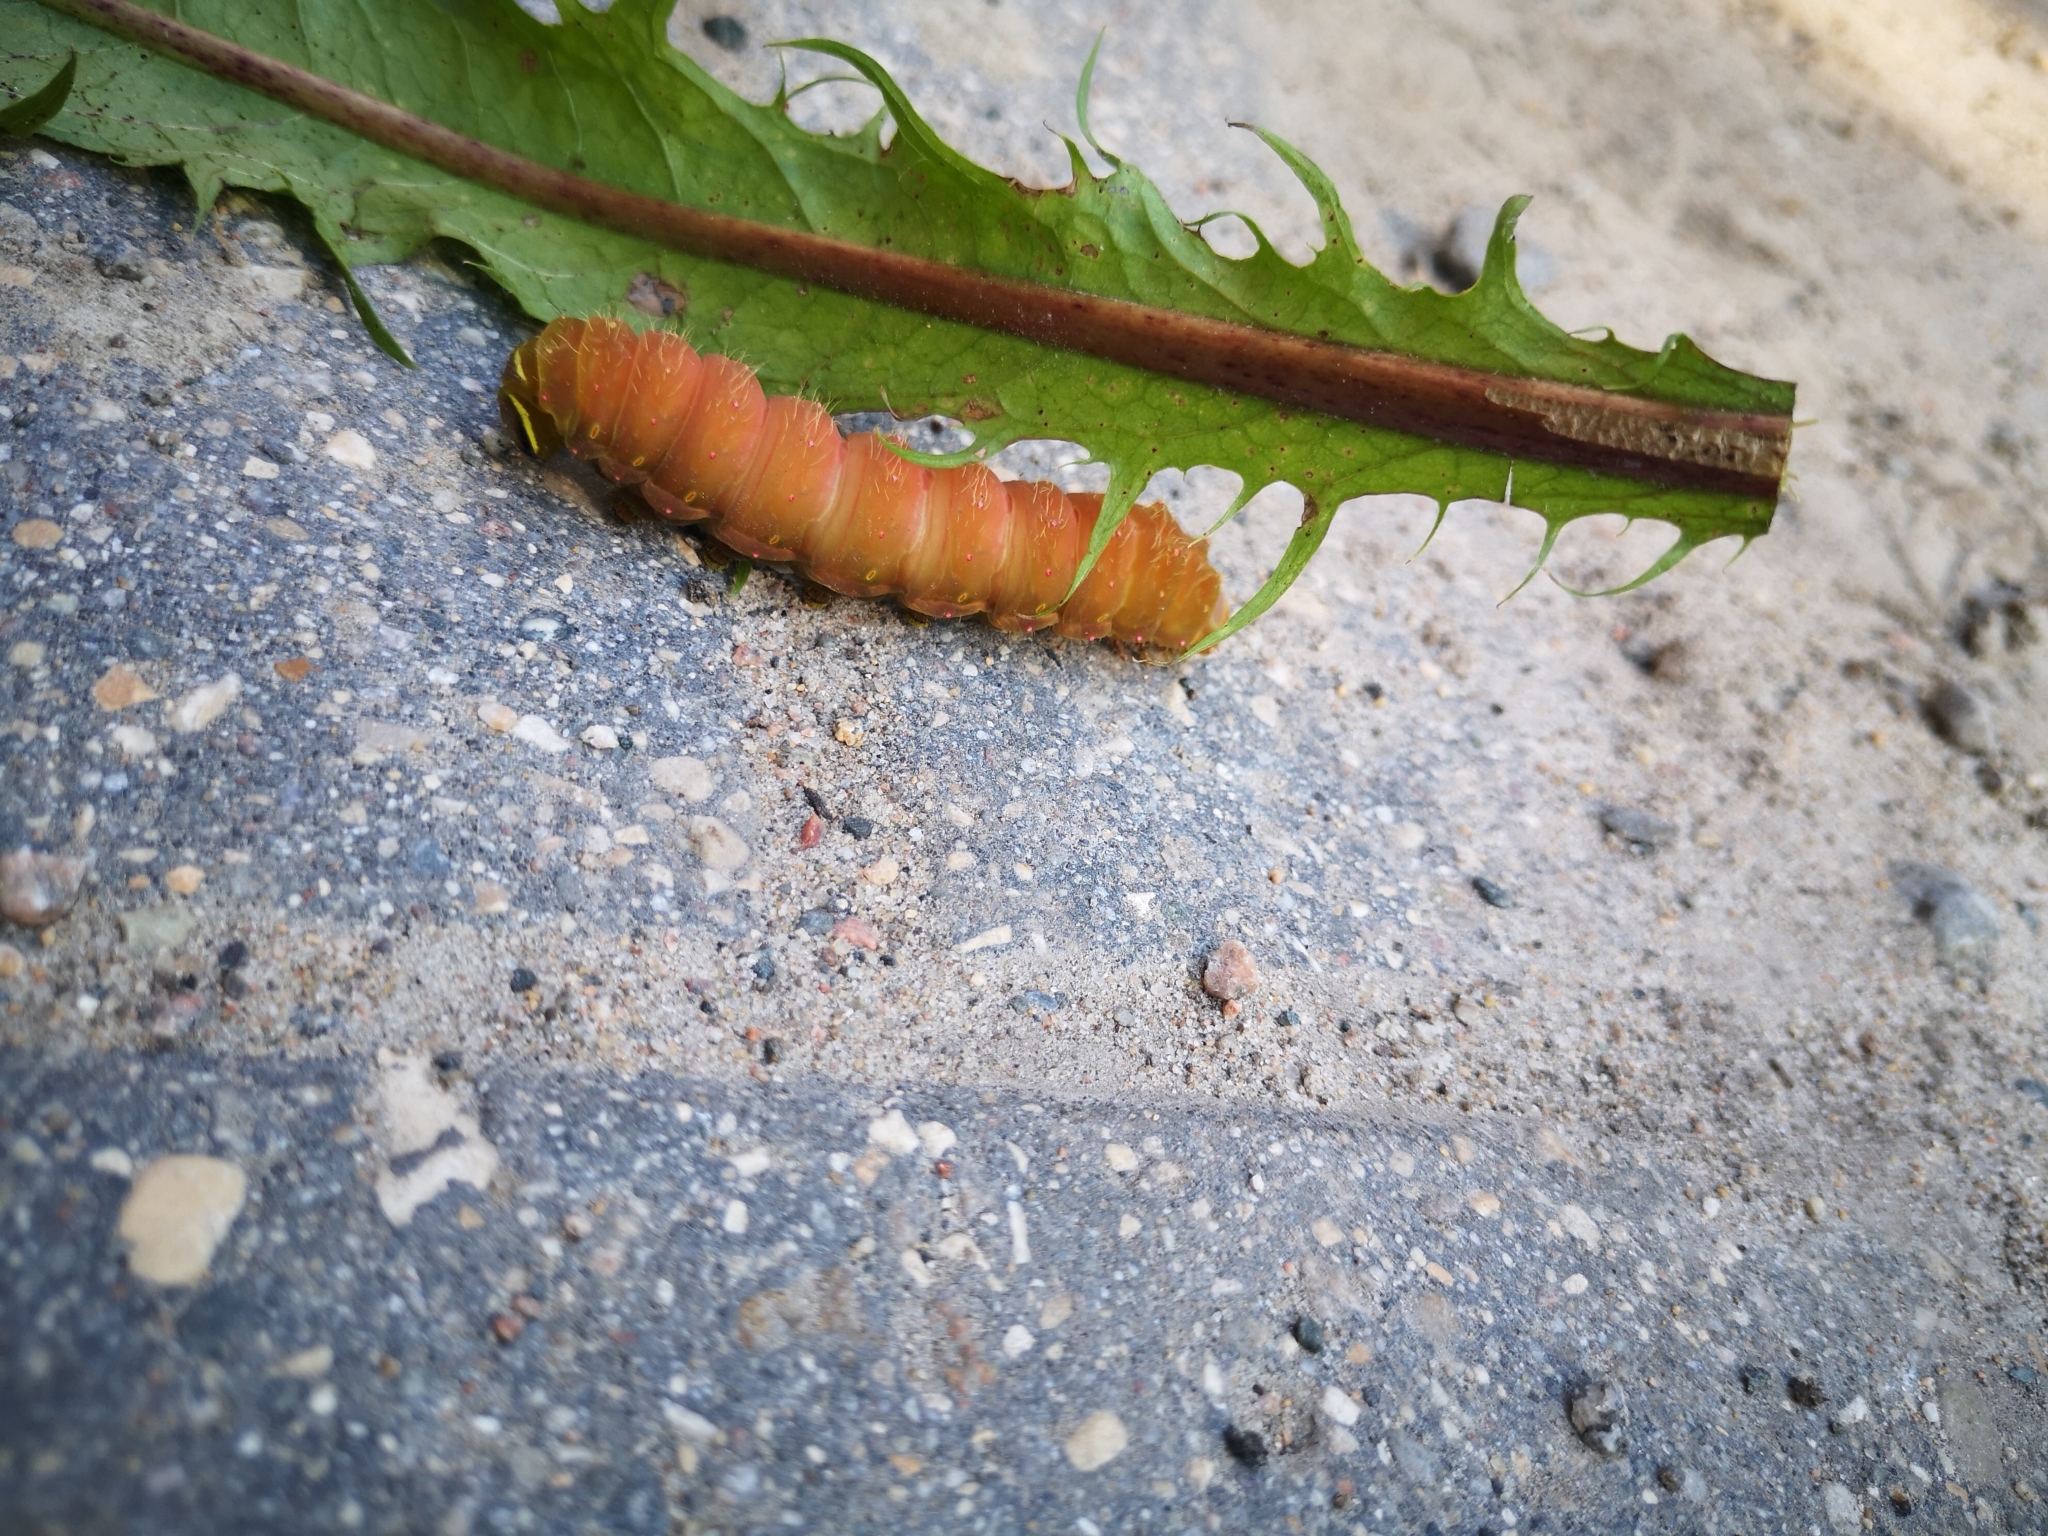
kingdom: Animalia
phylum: Arthropoda
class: Insecta
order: Lepidoptera
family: Saturniidae
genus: Actias
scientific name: Actias luna
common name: Luna moth
